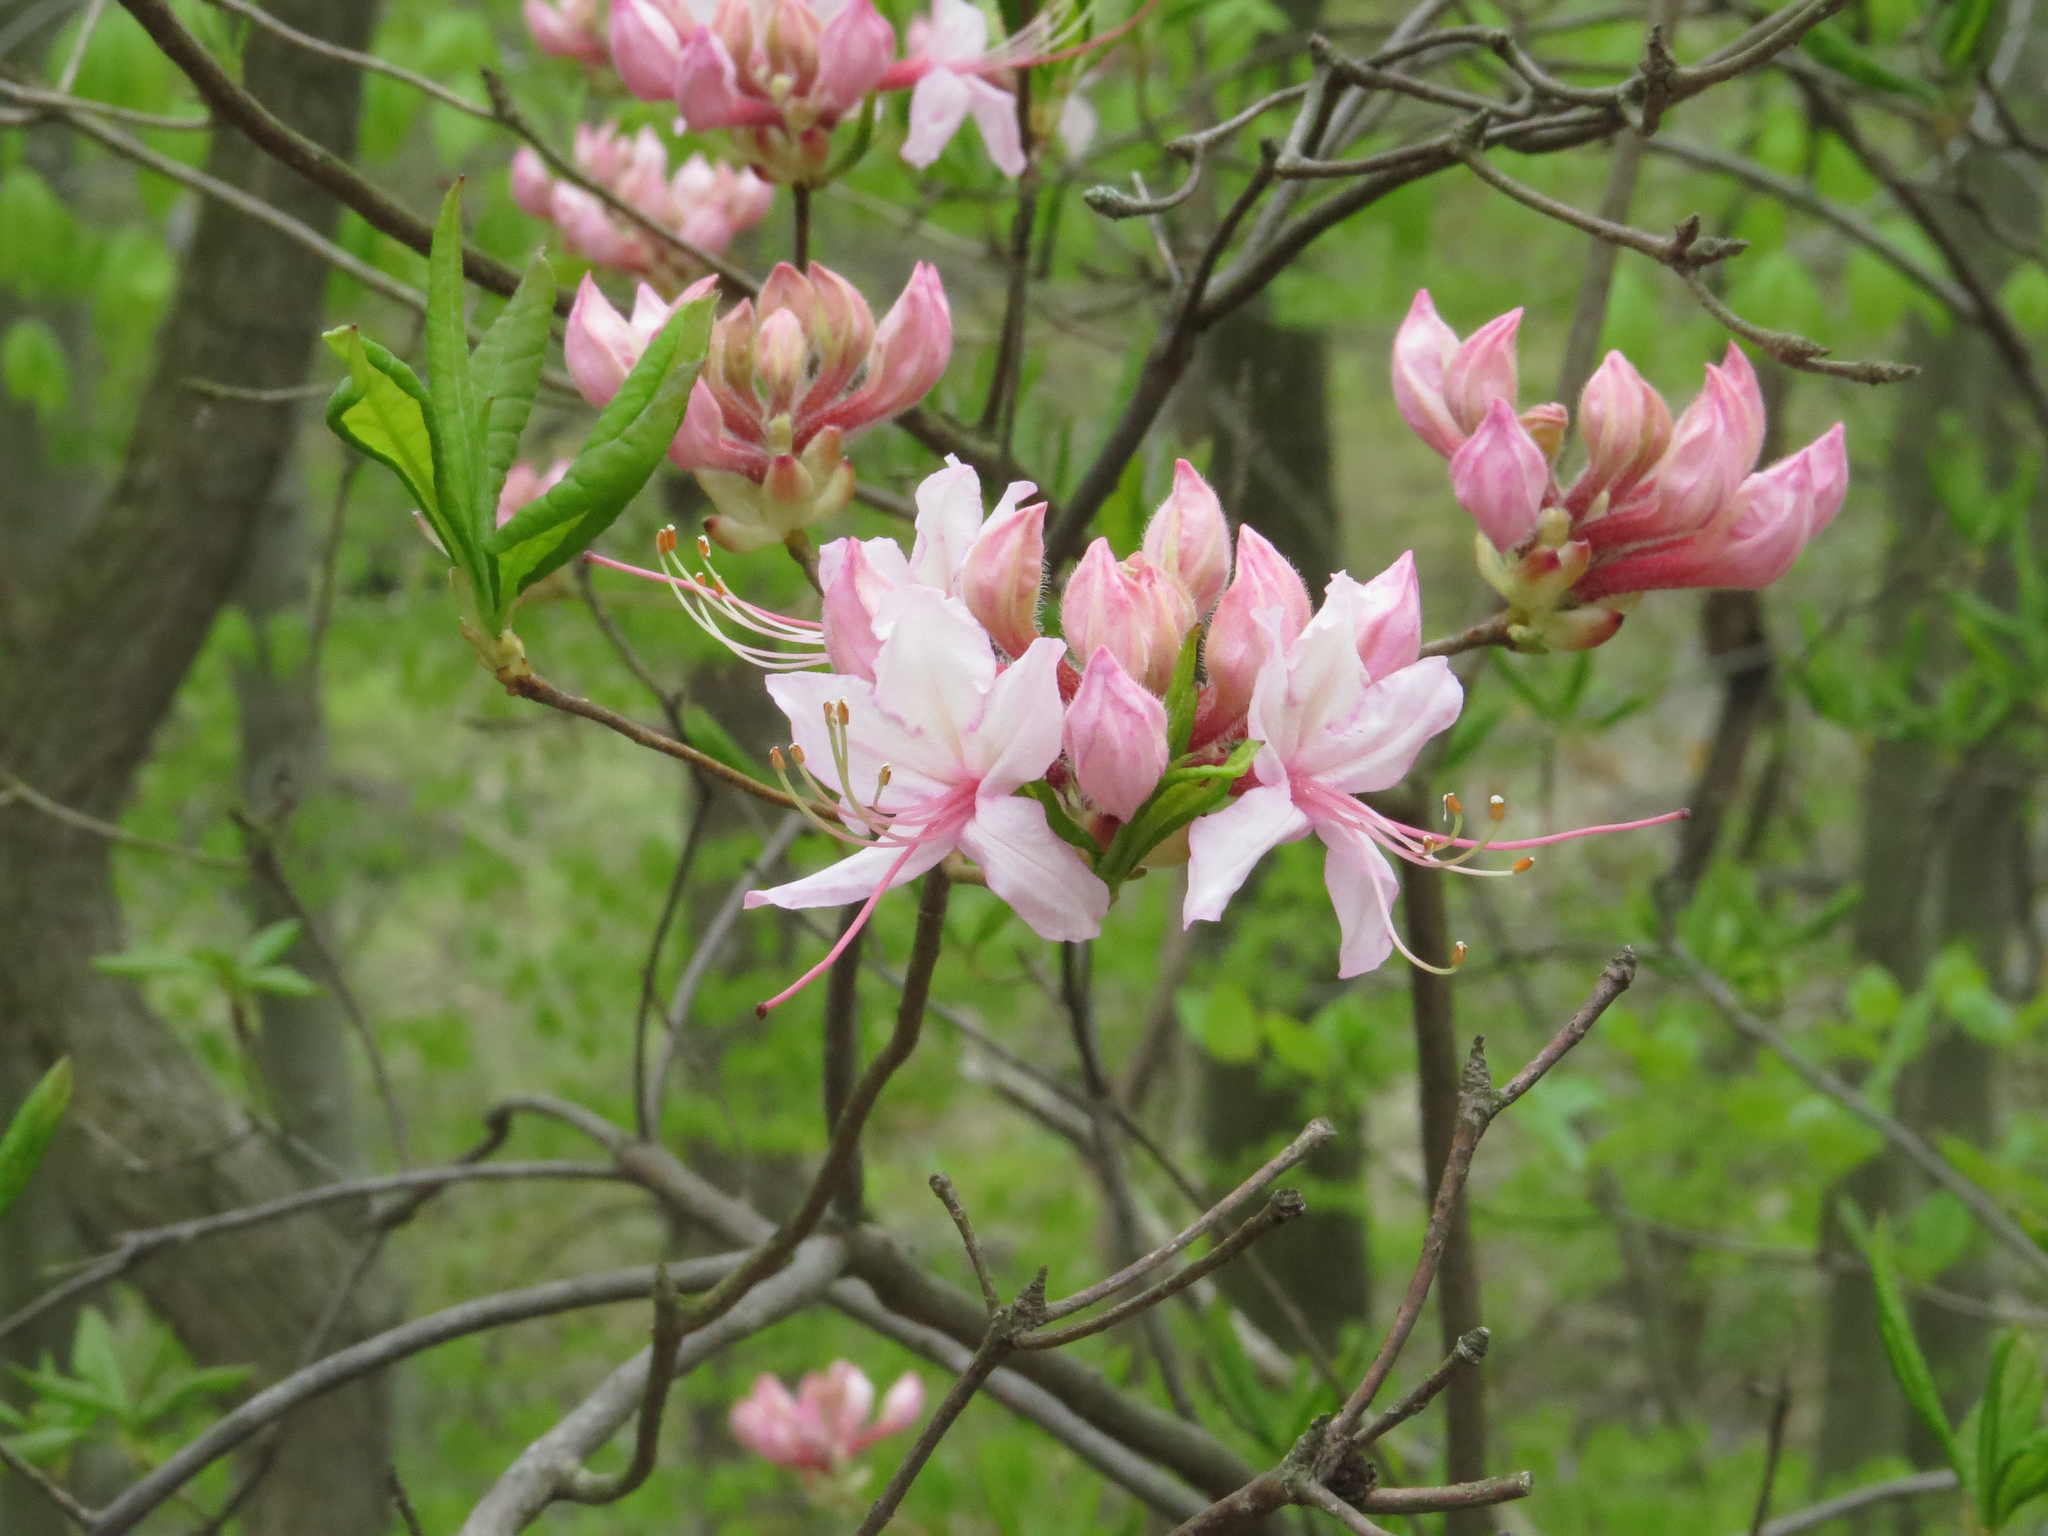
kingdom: Plantae
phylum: Tracheophyta
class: Magnoliopsida
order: Ericales
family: Ericaceae
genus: Rhododendron
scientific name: Rhododendron periclymenoides
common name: Election-pink
